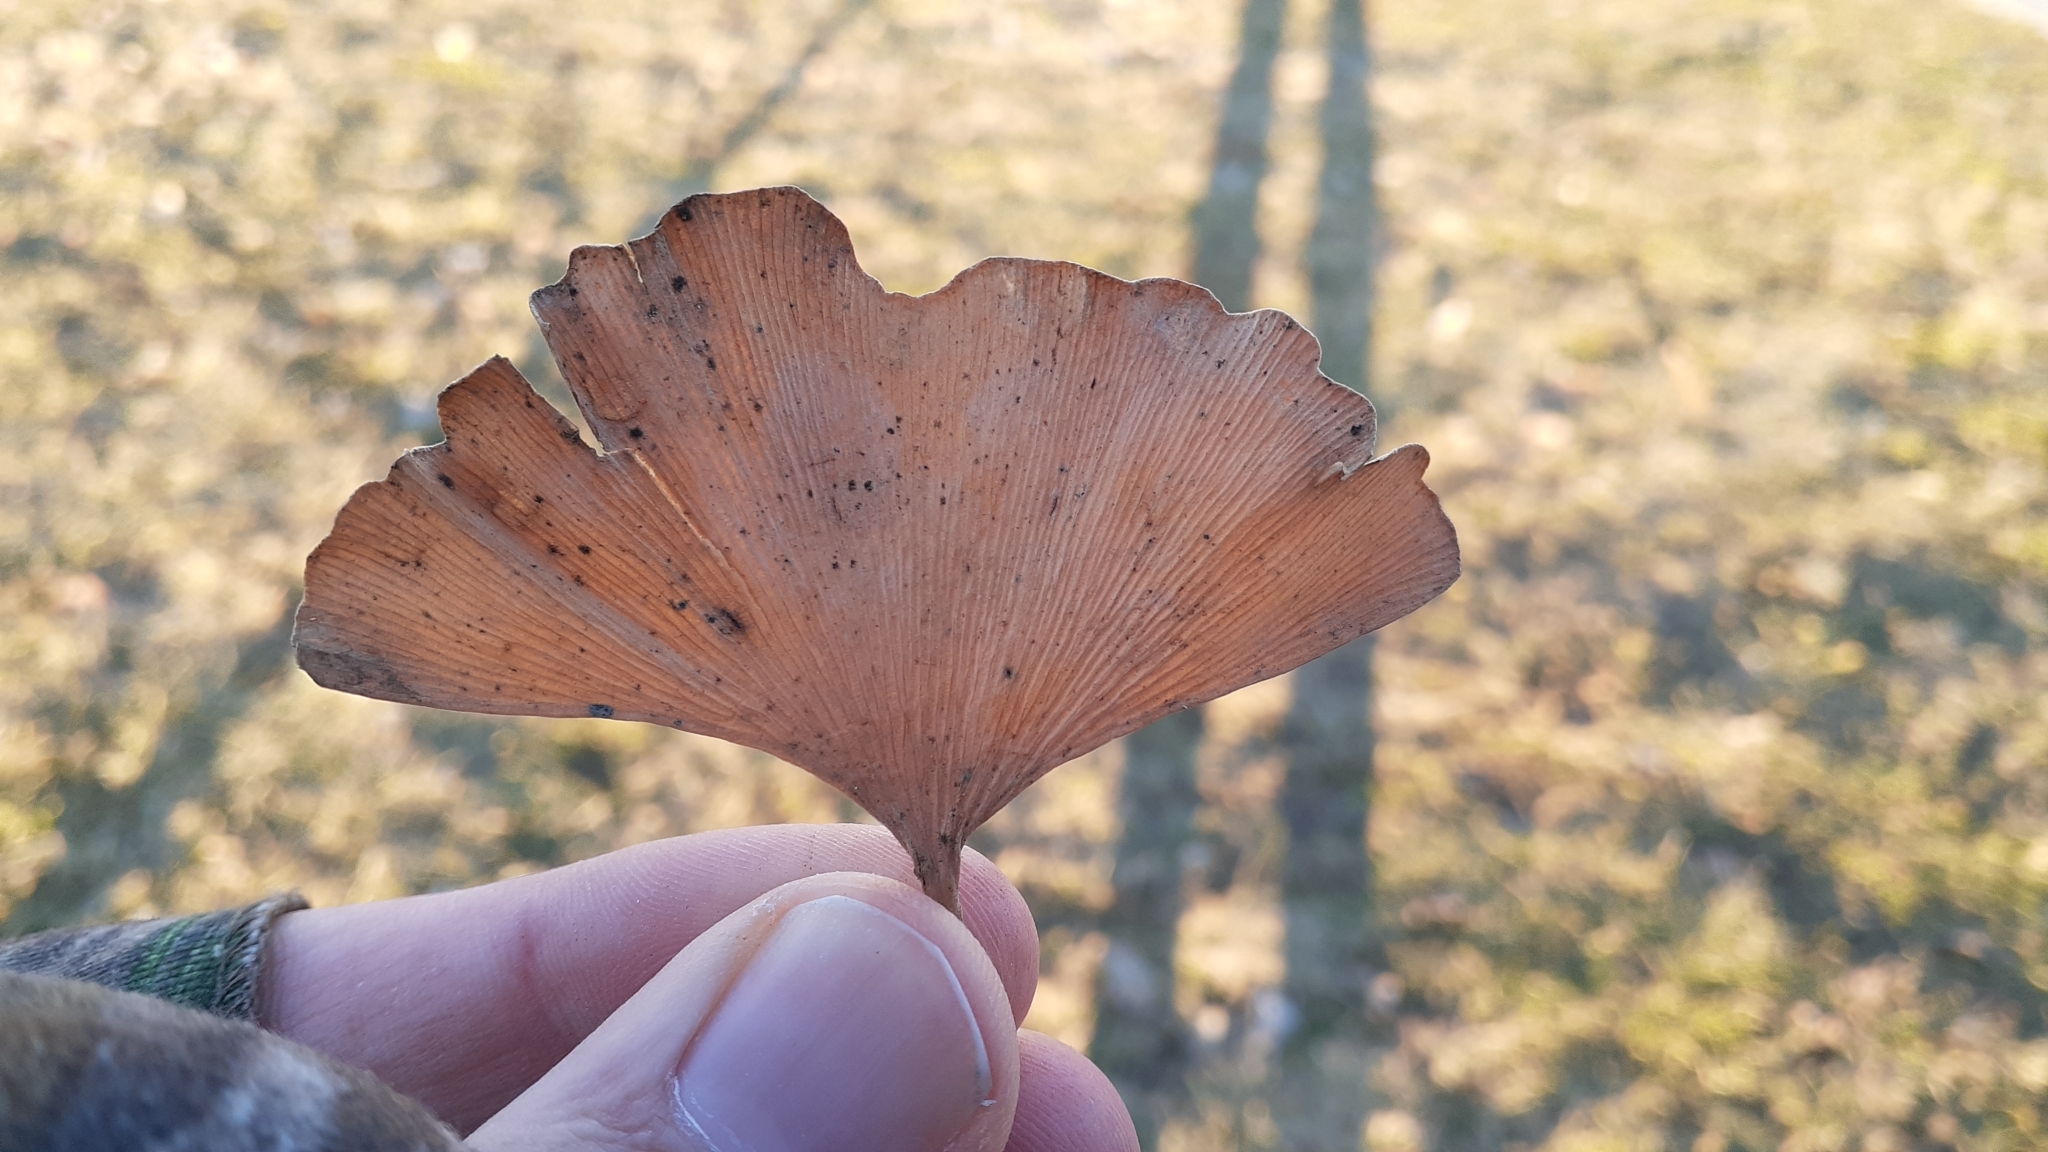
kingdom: Fungi
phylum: Basidiomycota
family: Bartheletiaceae
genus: Bartheletia
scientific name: Bartheletia paradoxa
